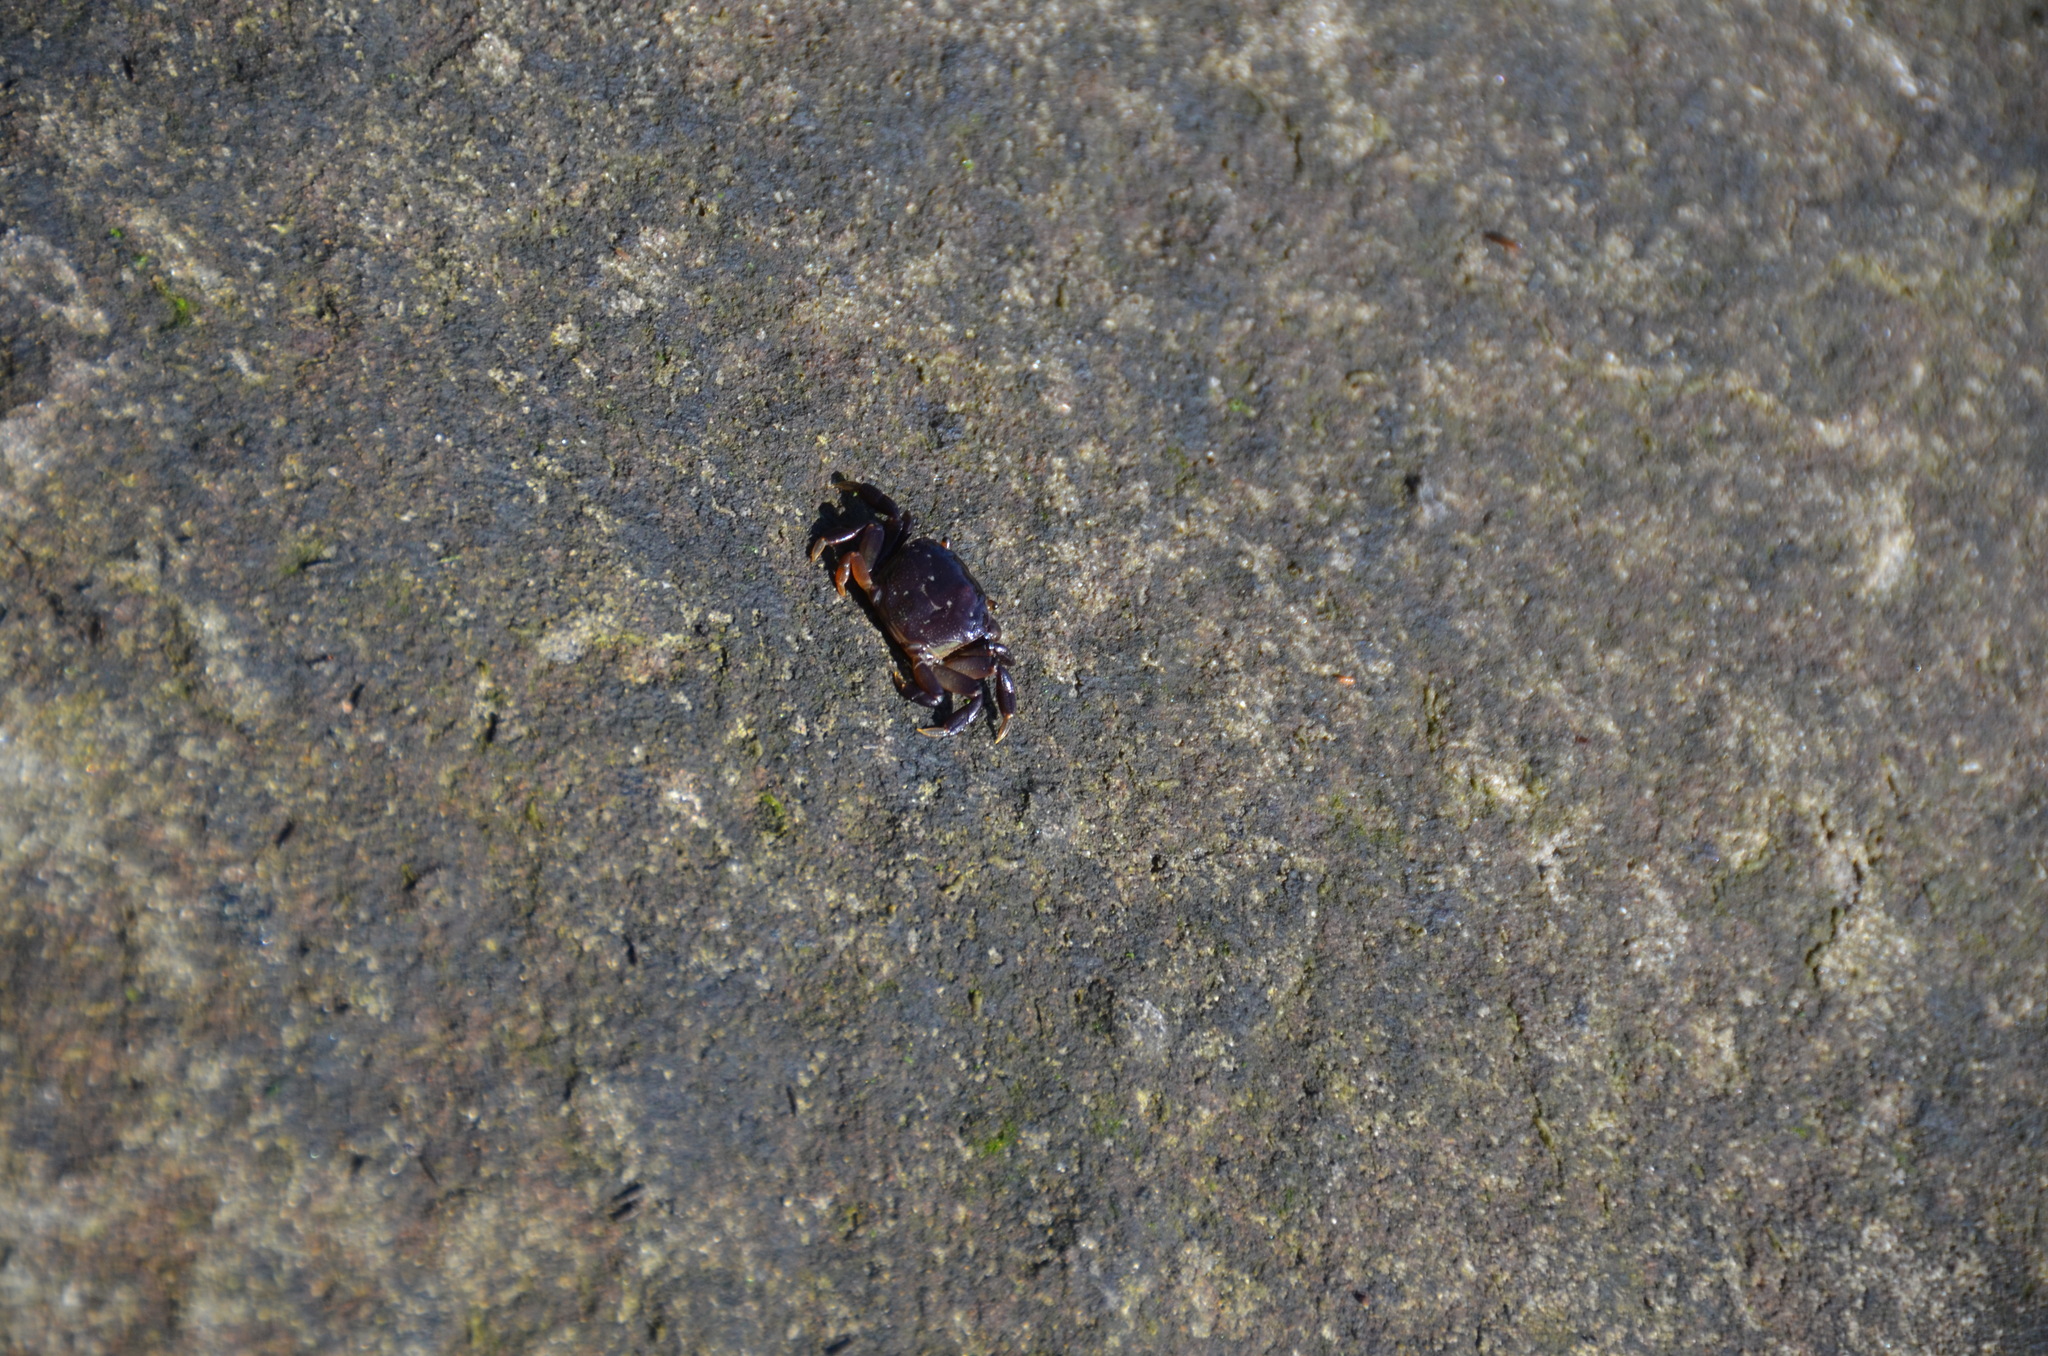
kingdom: Animalia
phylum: Arthropoda
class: Malacostraca
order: Decapoda
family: Varunidae
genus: Hemigrapsus
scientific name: Hemigrapsus nudus
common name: Purple shore crab
